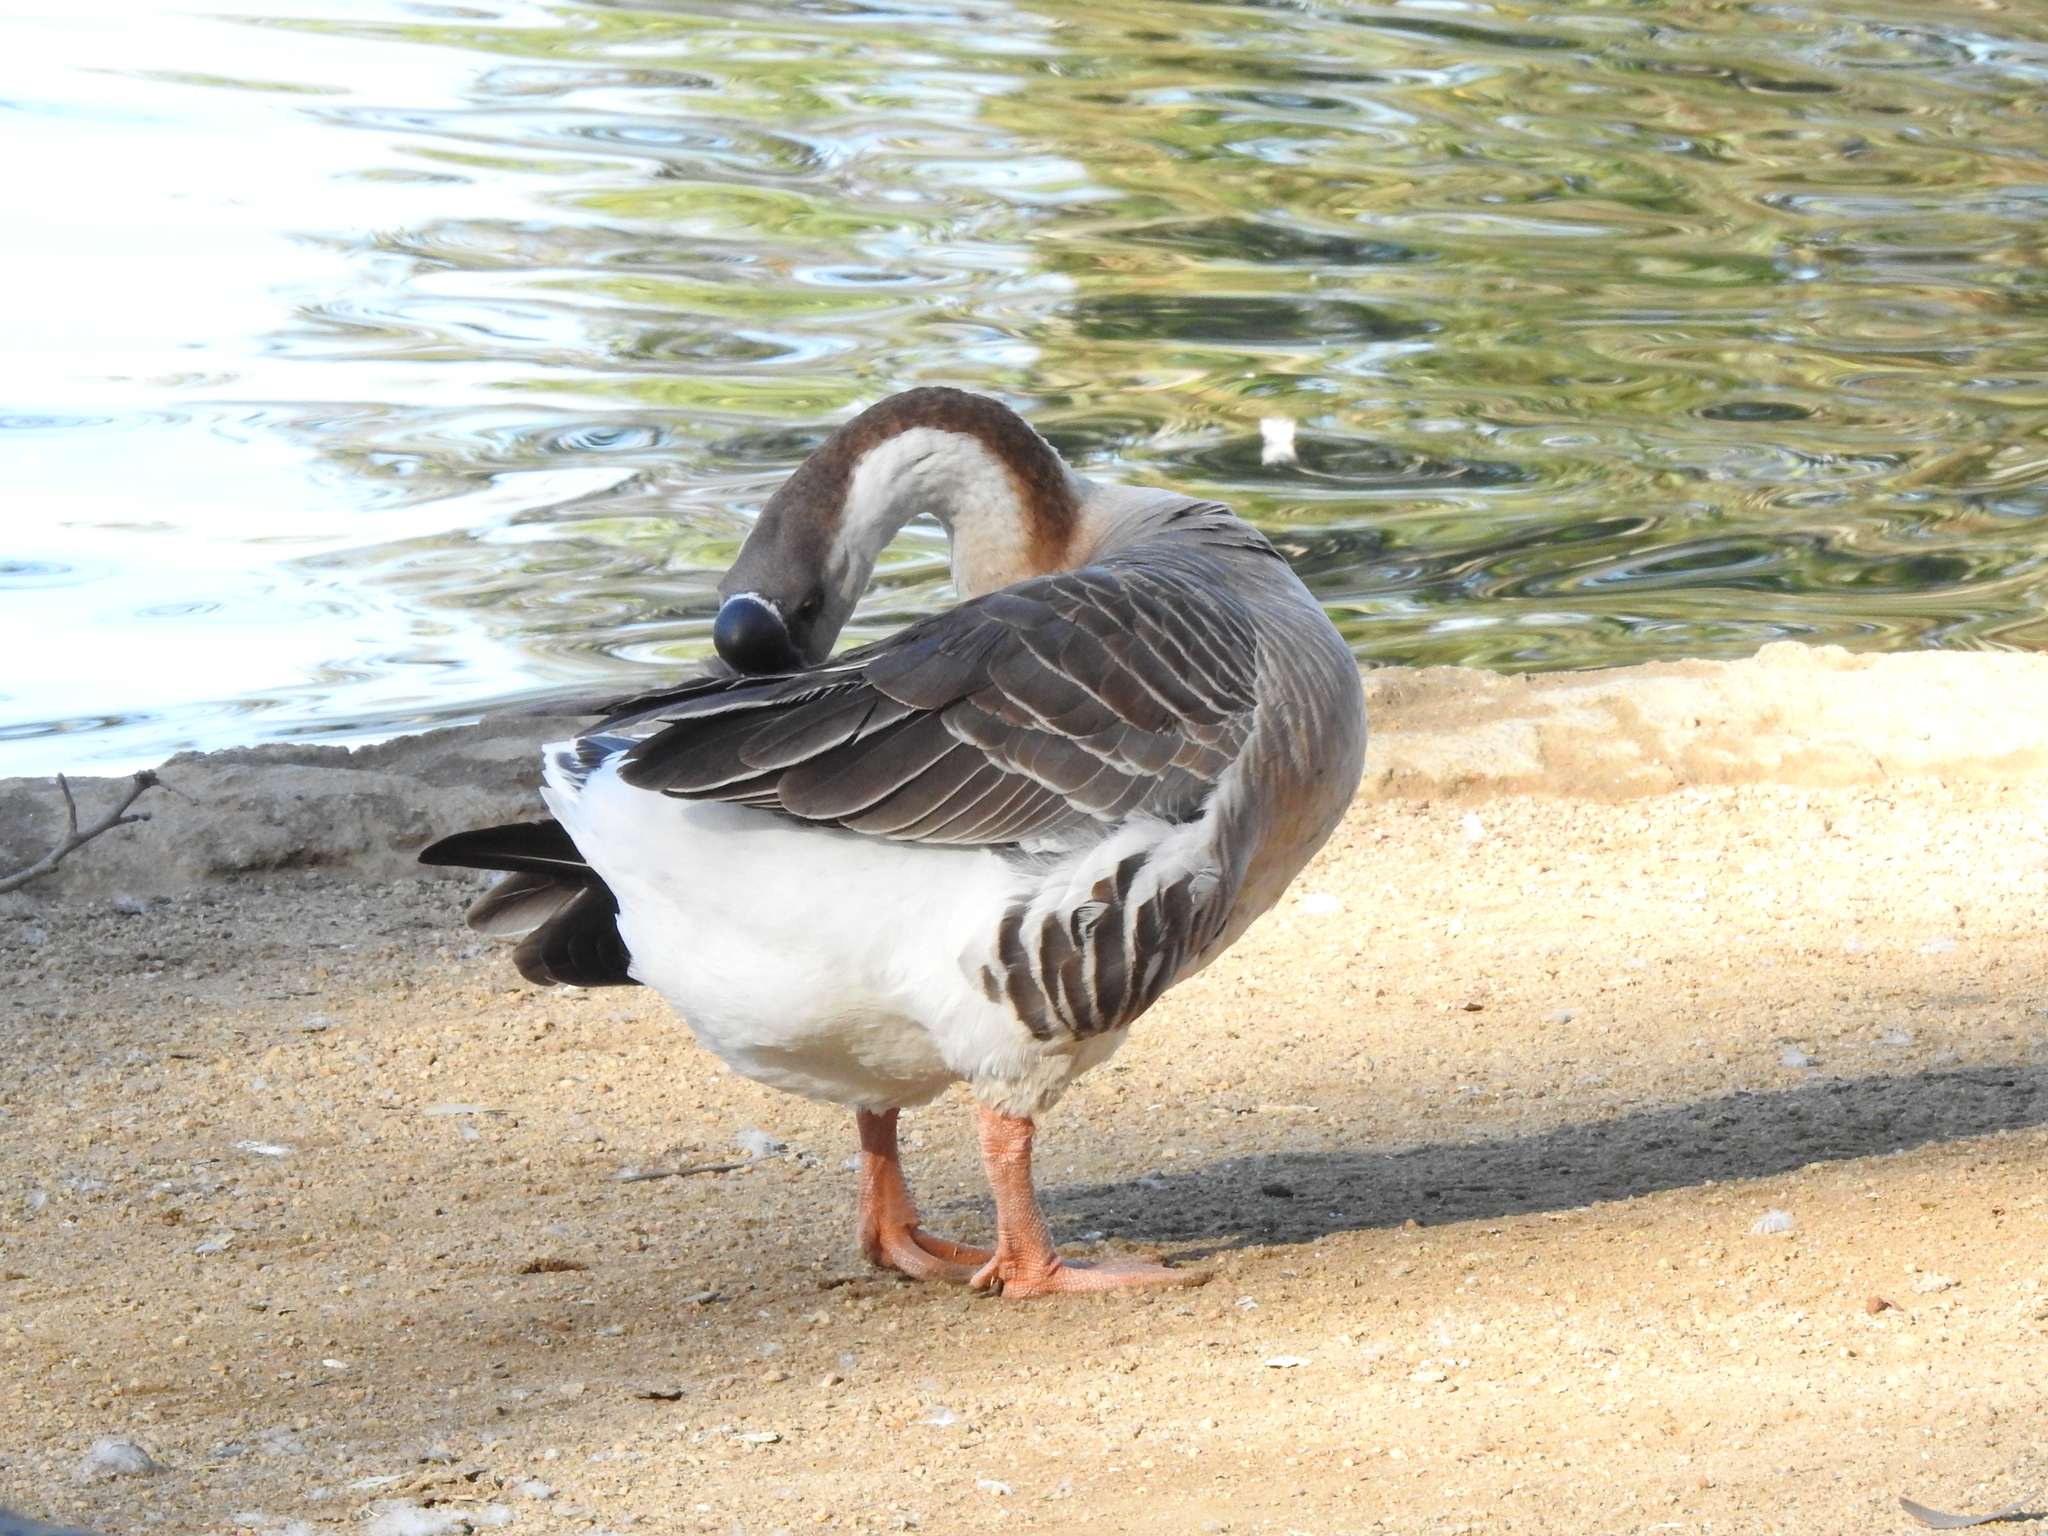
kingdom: Animalia
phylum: Chordata
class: Aves
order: Anseriformes
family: Anatidae
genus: Anser
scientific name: Anser cygnoides
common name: Swan goose
